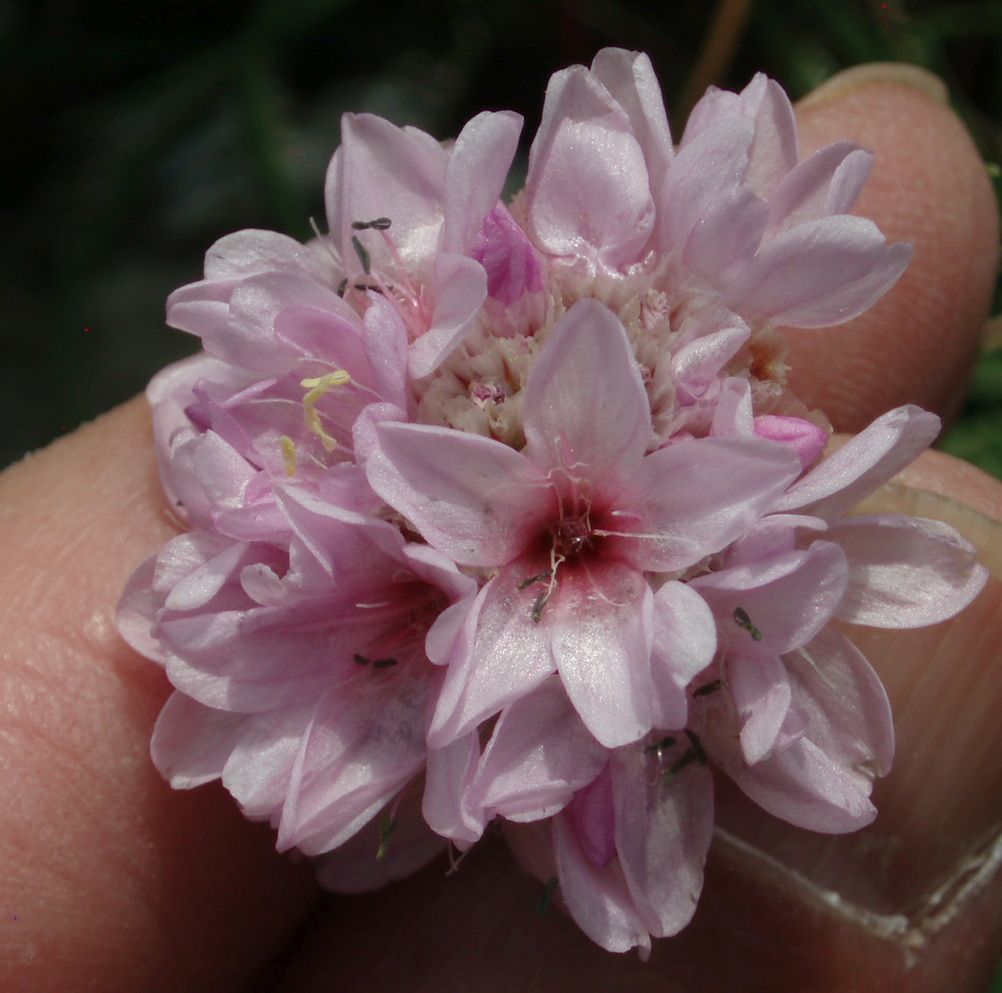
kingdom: Plantae
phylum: Tracheophyta
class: Magnoliopsida
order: Caryophyllales
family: Plumbaginaceae
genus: Armeria
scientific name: Armeria maritima
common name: Thrift
